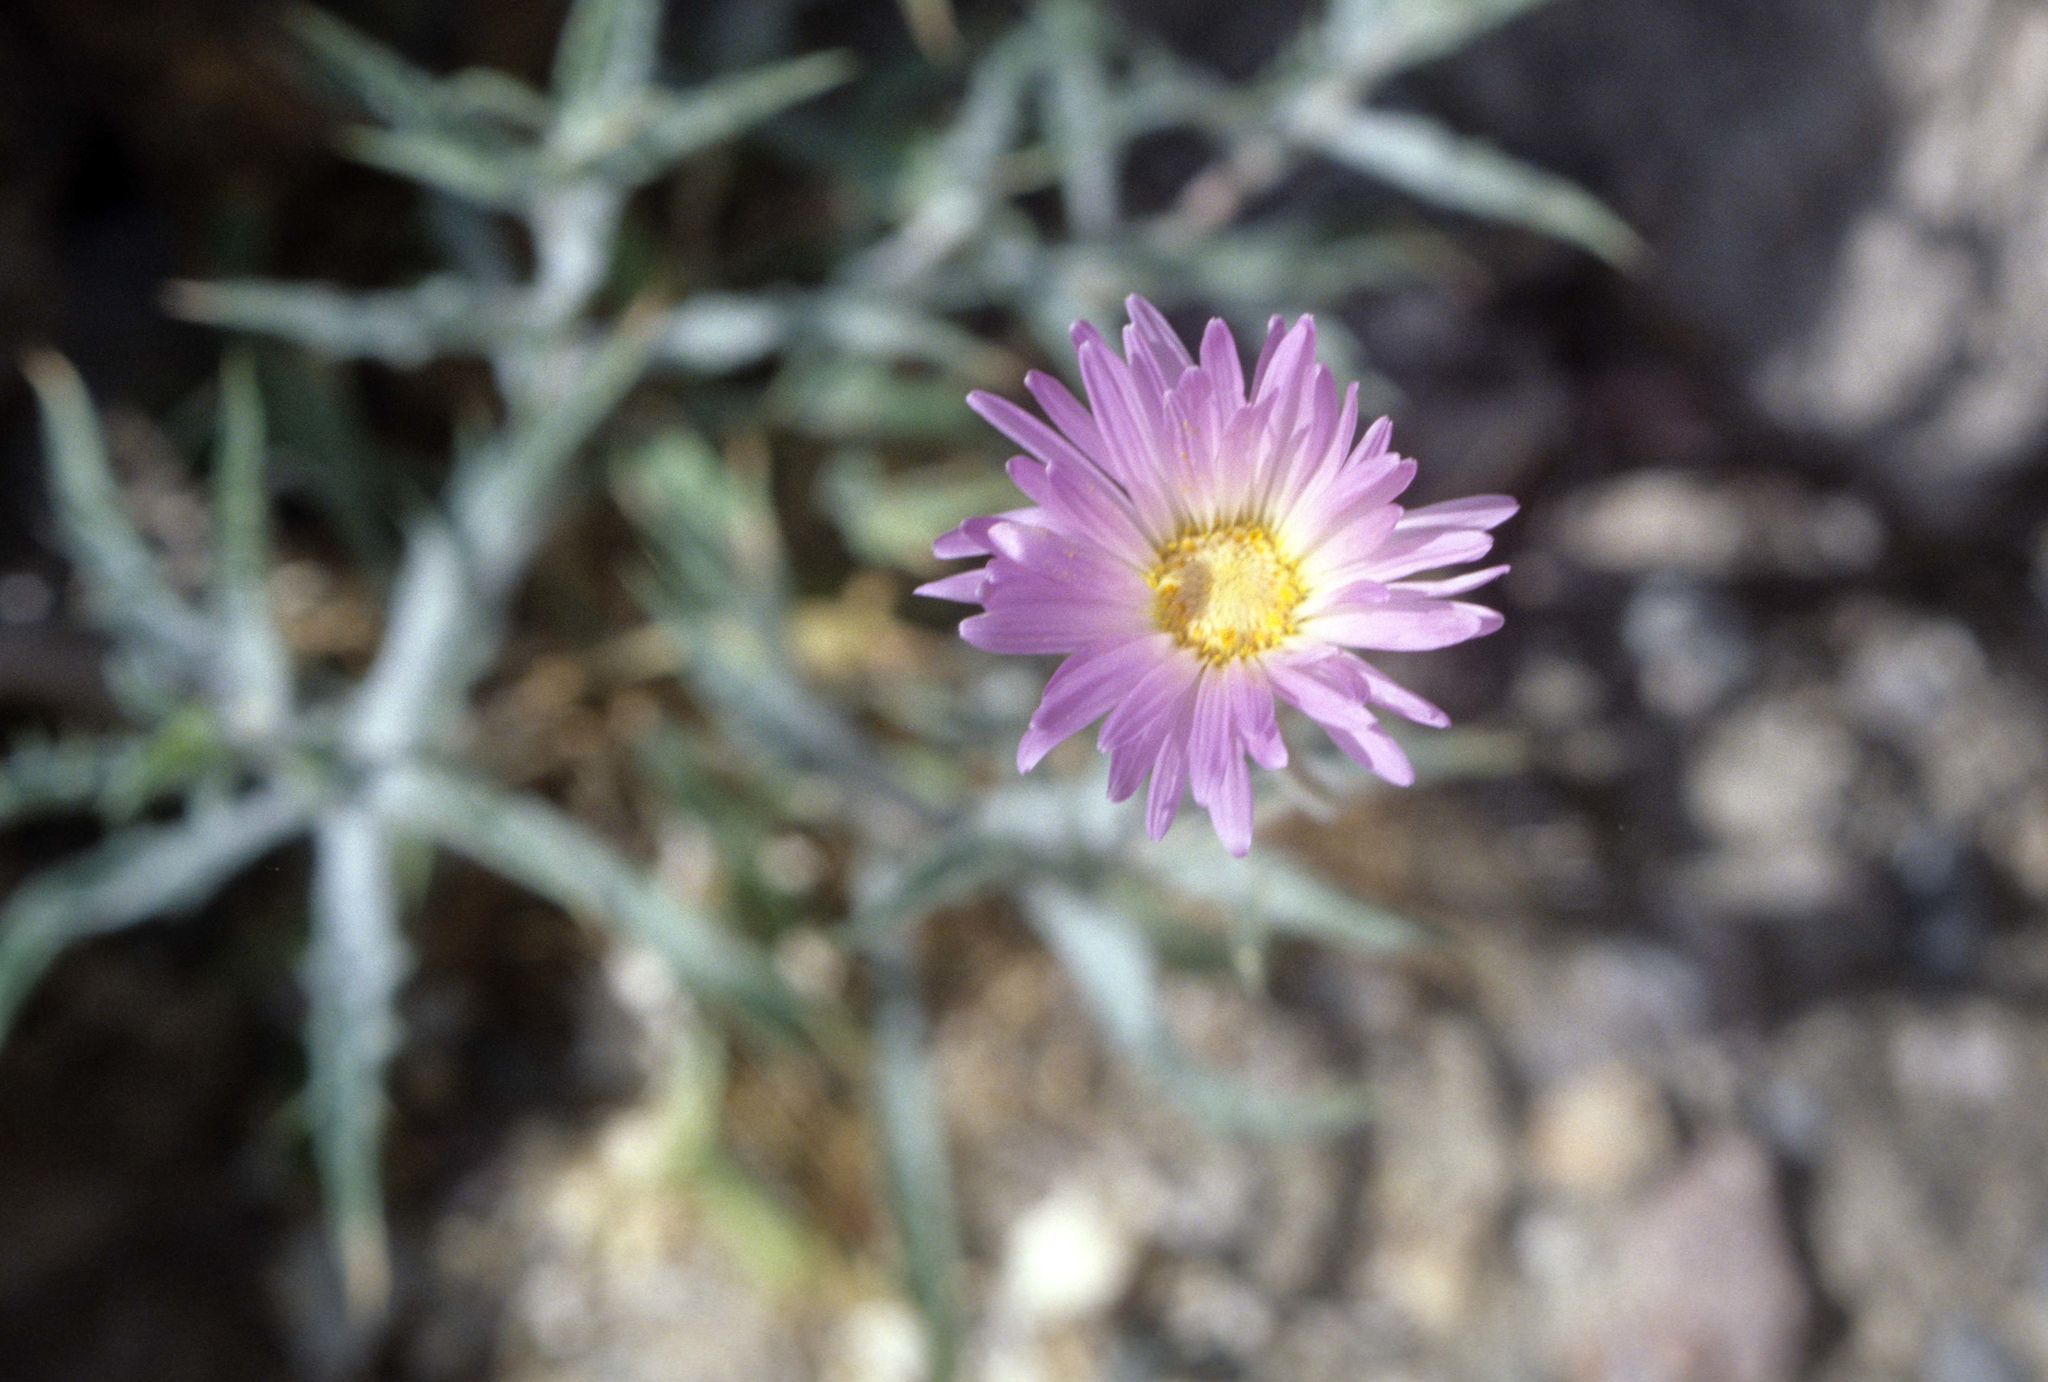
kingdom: Plantae
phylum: Tracheophyta
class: Magnoliopsida
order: Asterales
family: Asteraceae
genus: Xylorhiza
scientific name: Xylorhiza tortifolia
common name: Hurt-leaf woody-aster
